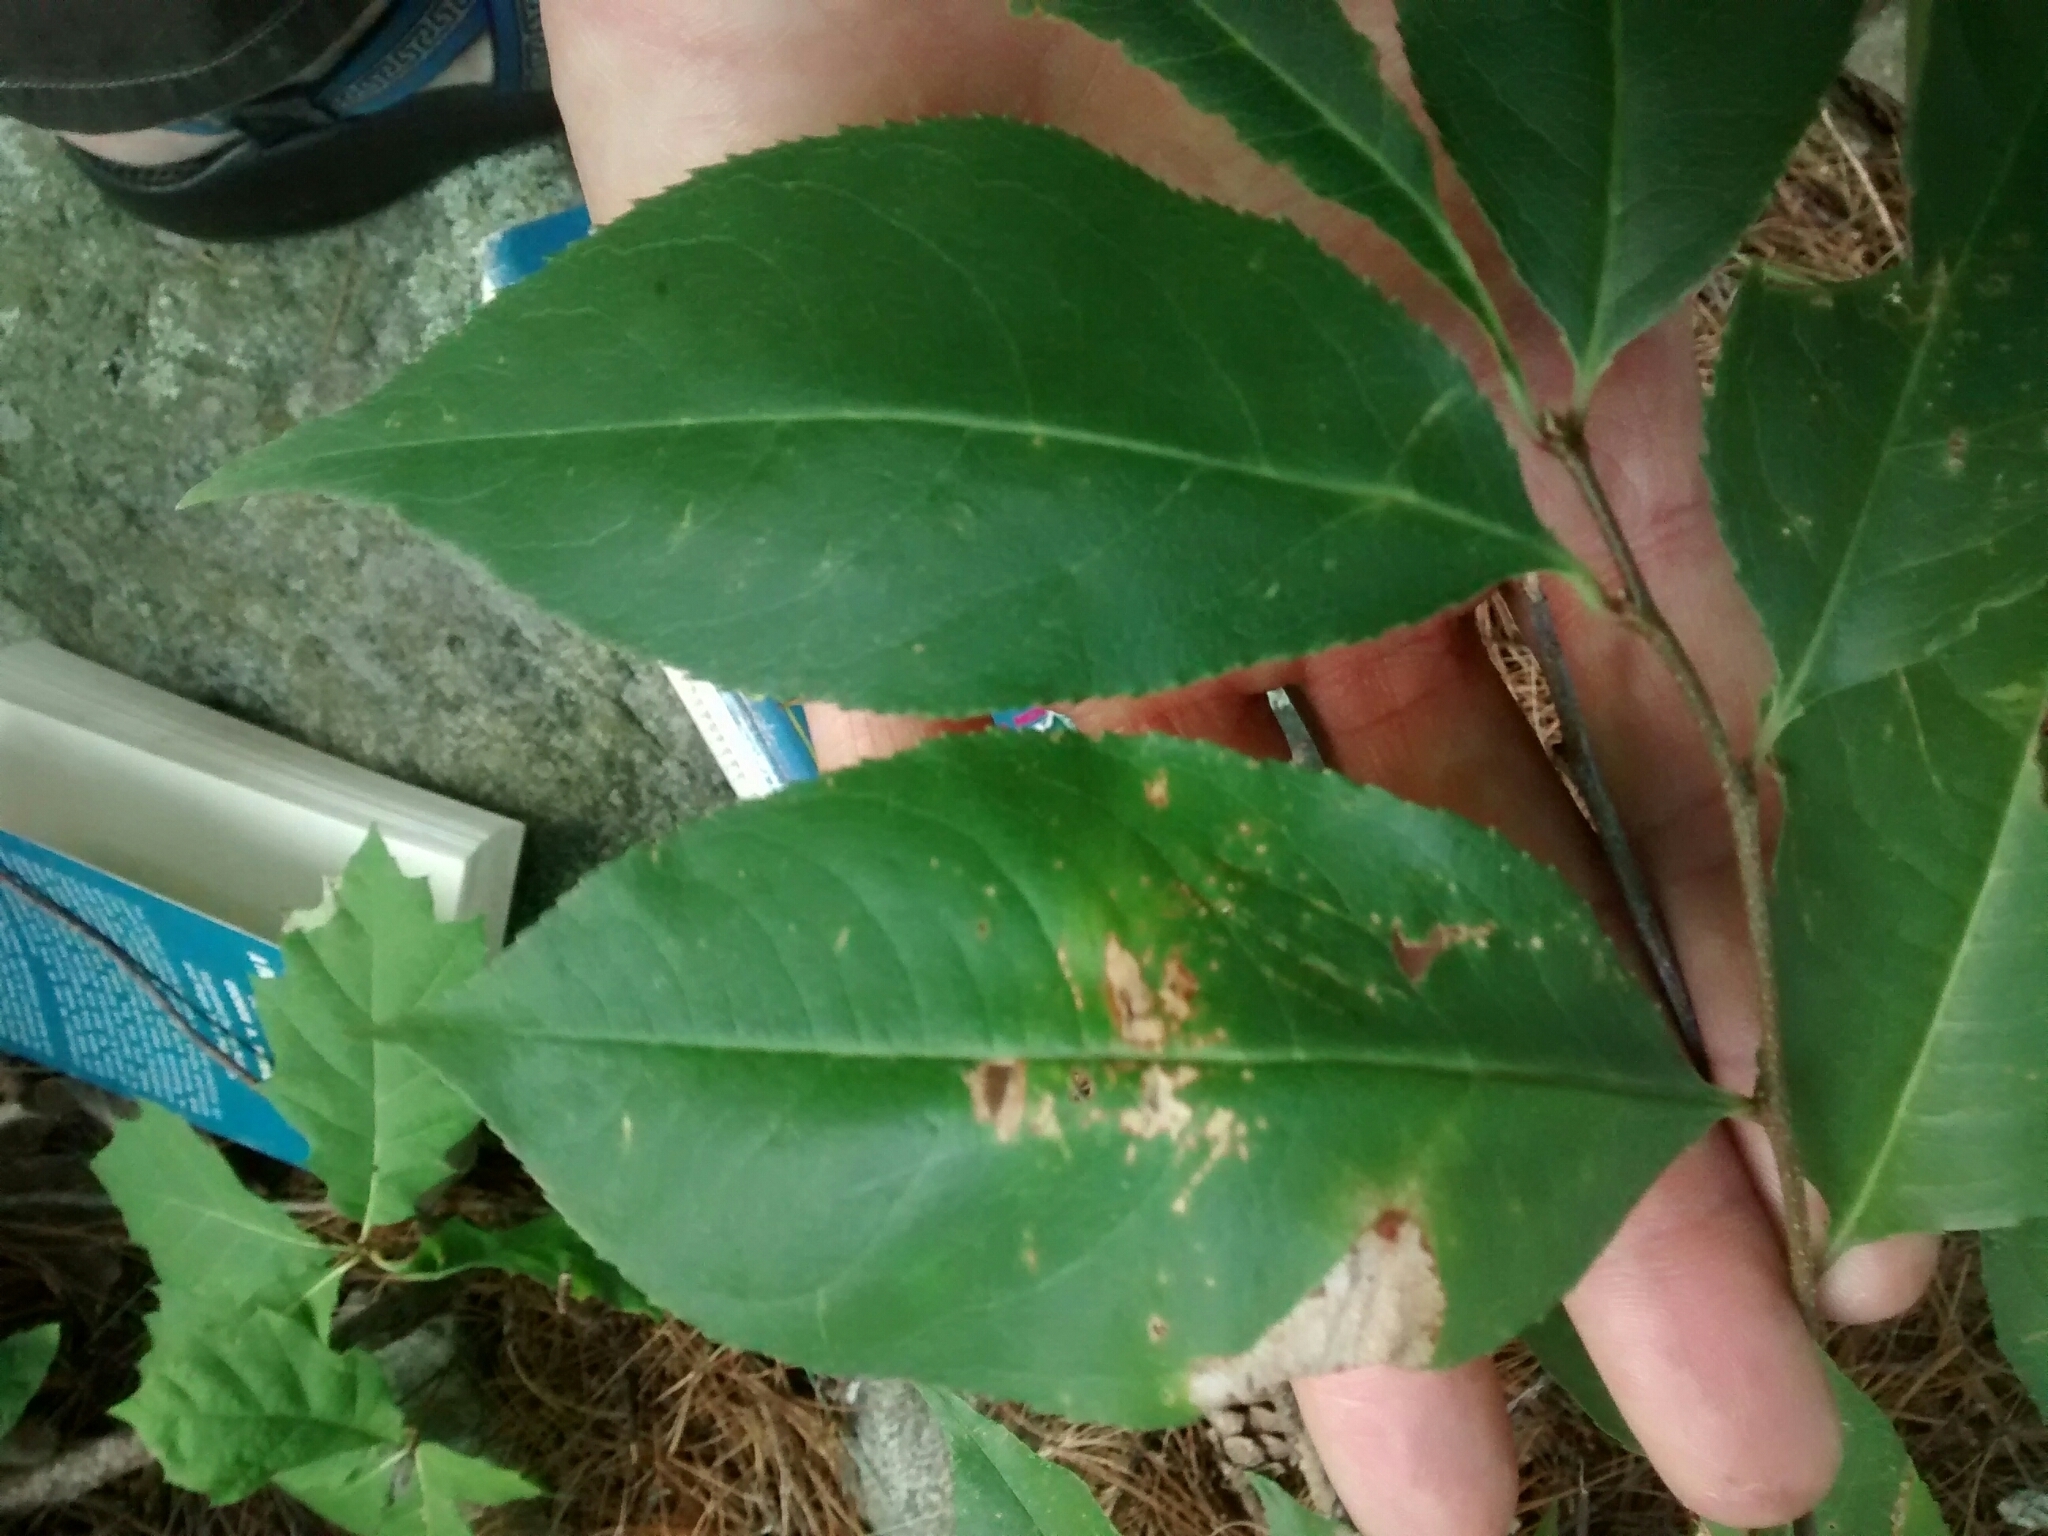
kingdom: Plantae
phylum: Tracheophyta
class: Magnoliopsida
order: Rosales
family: Rosaceae
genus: Prunus
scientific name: Prunus serotina
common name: Black cherry
